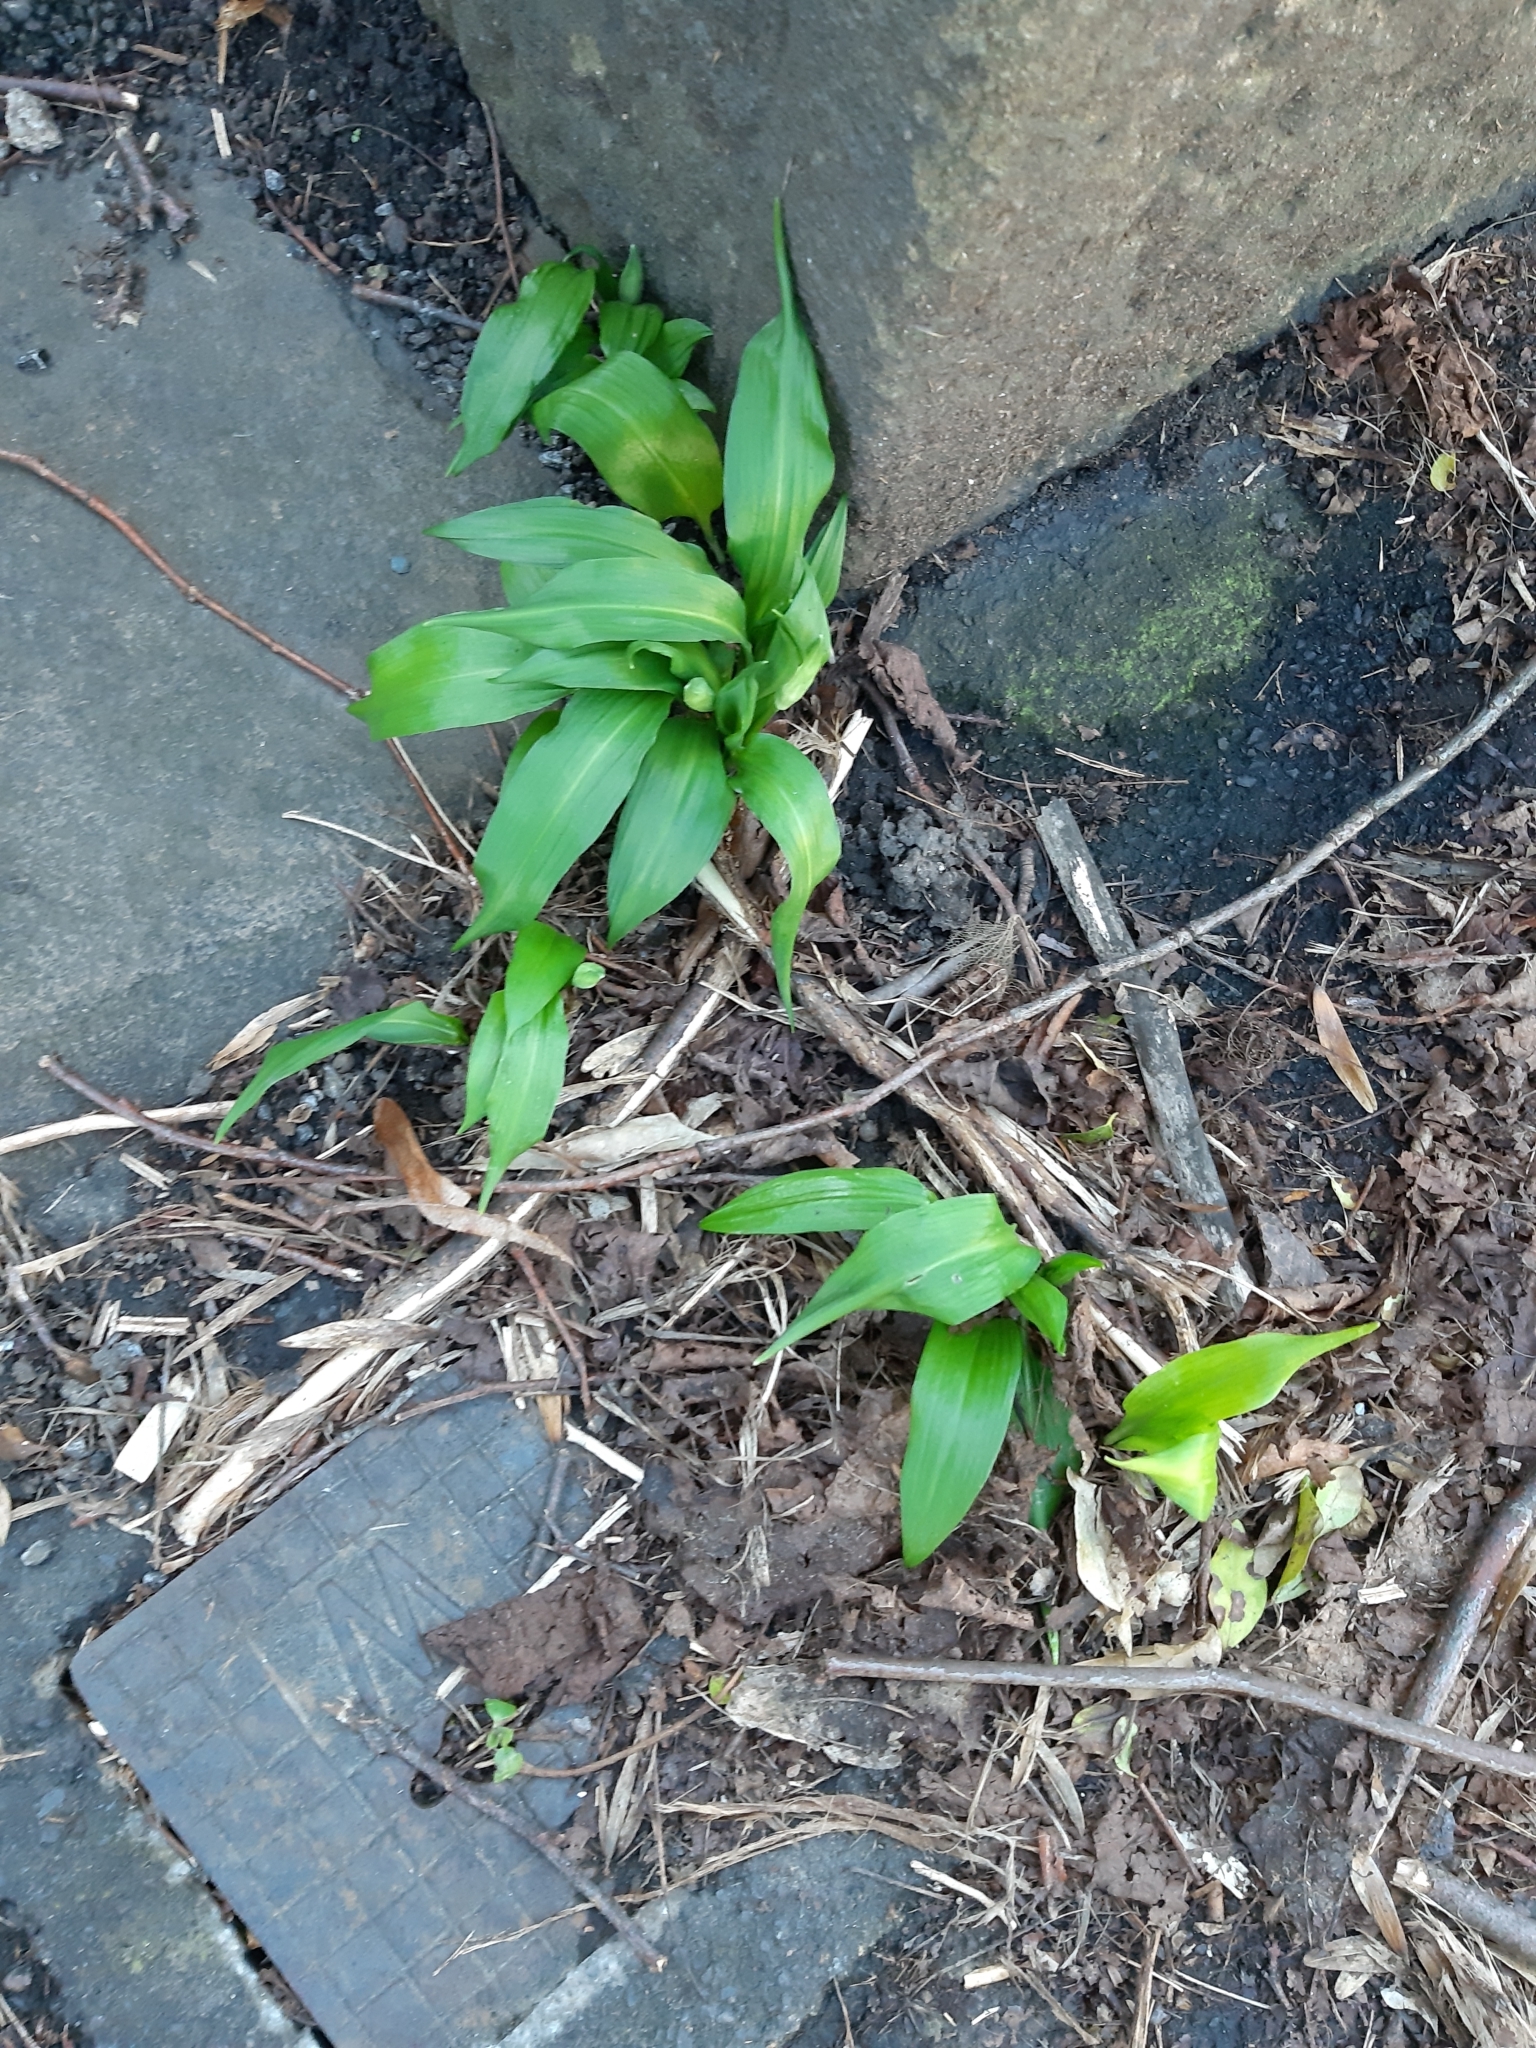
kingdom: Plantae
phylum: Tracheophyta
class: Liliopsida
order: Asparagales
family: Amaryllidaceae
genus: Allium
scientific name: Allium ursinum
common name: Ramsons
